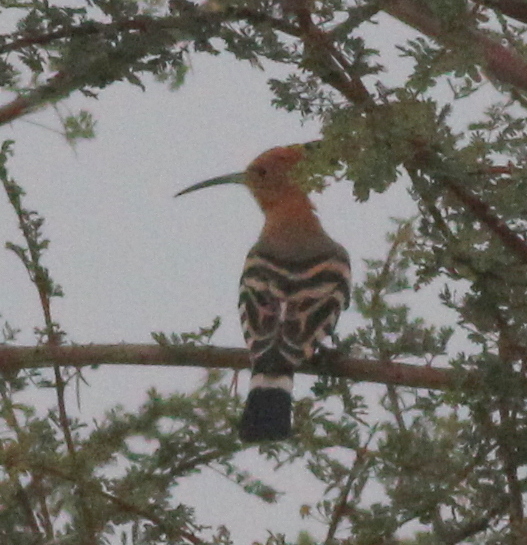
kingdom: Animalia
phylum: Chordata
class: Aves
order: Bucerotiformes
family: Upupidae
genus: Upupa
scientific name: Upupa epops
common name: Eurasian hoopoe
